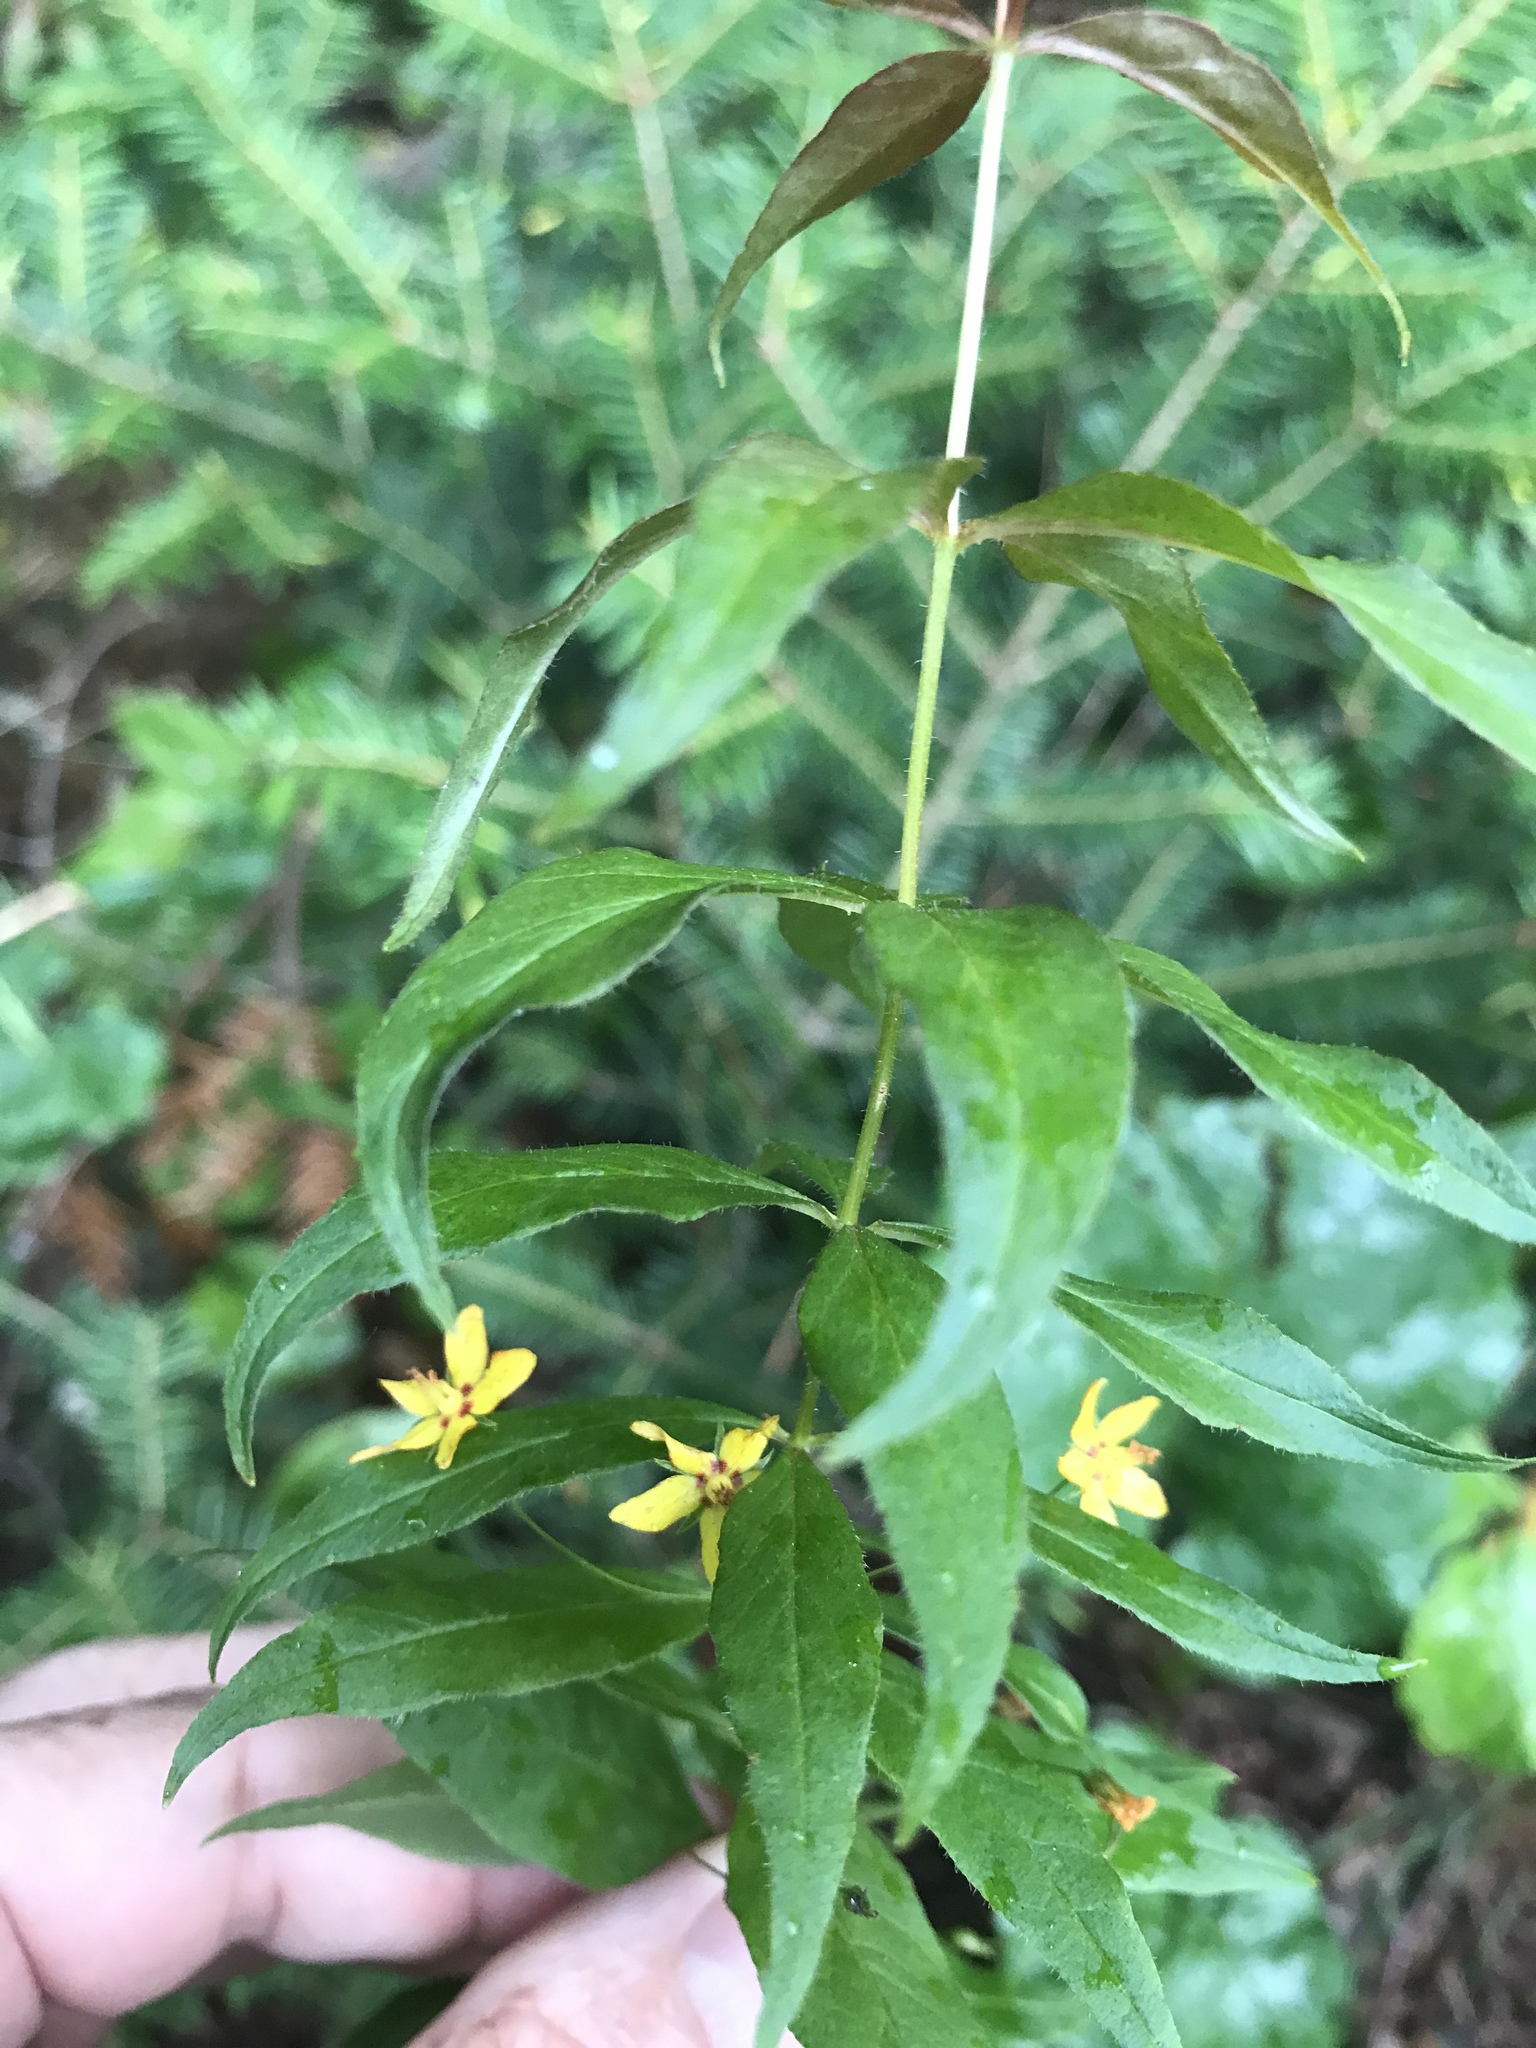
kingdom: Plantae
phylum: Tracheophyta
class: Magnoliopsida
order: Ericales
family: Primulaceae
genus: Lysimachia
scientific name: Lysimachia quadrifolia
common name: Whorled loosestrife
